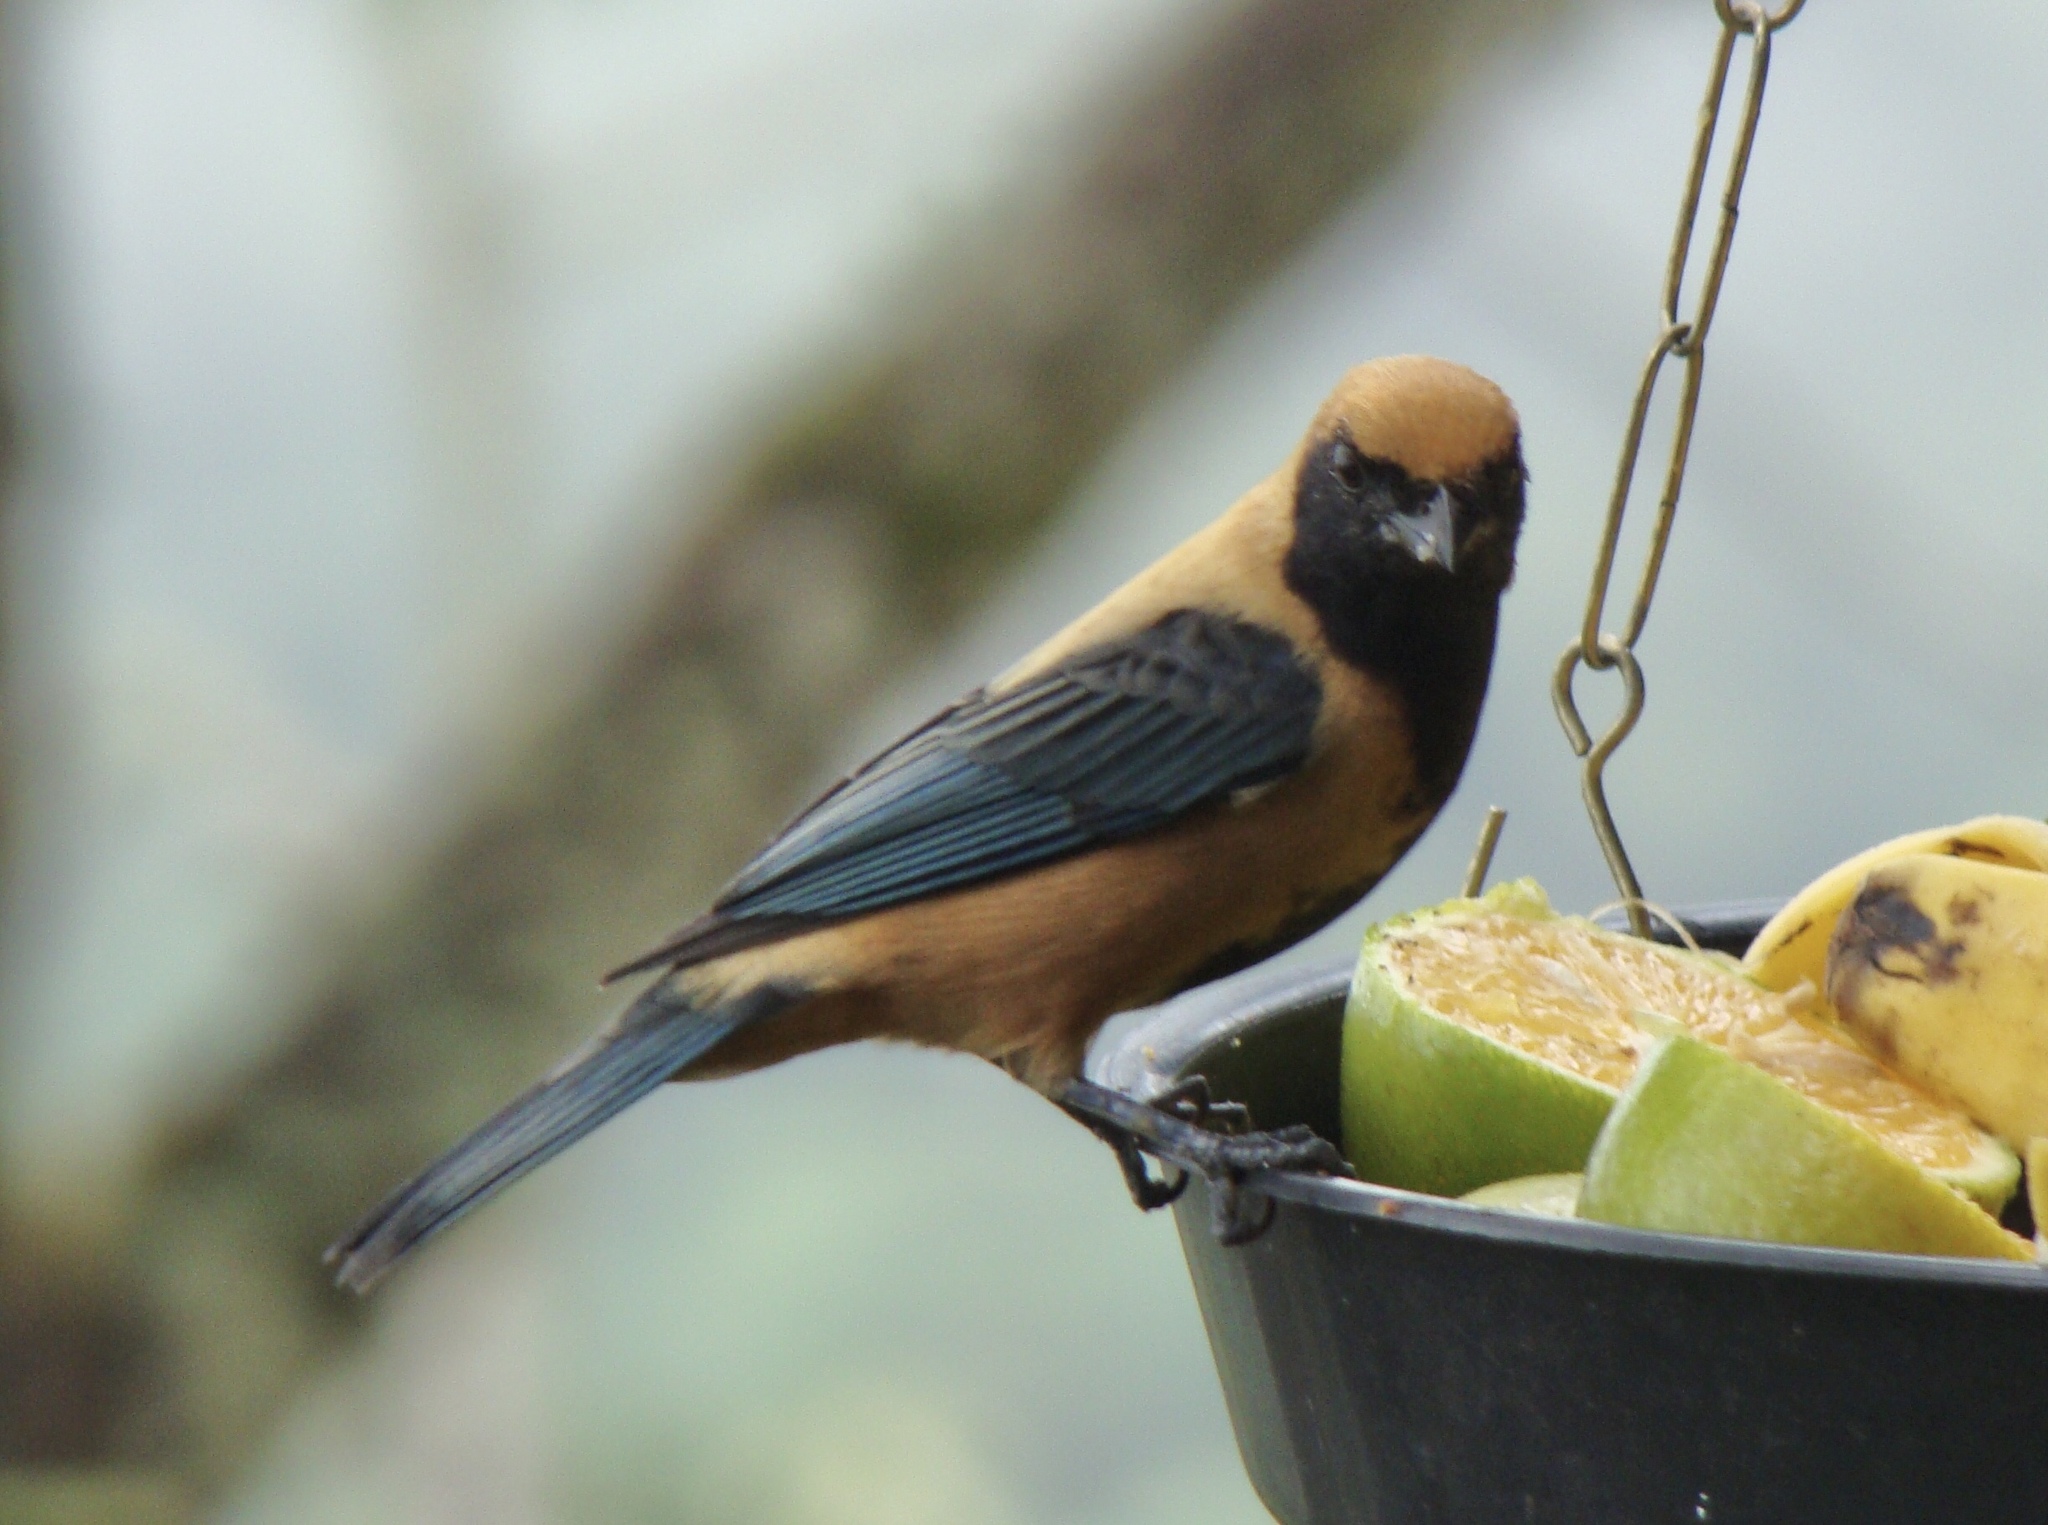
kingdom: Animalia
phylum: Chordata
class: Aves
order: Passeriformes
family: Thraupidae
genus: Stilpnia
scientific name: Stilpnia cayana
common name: Burnished-buff tanager
